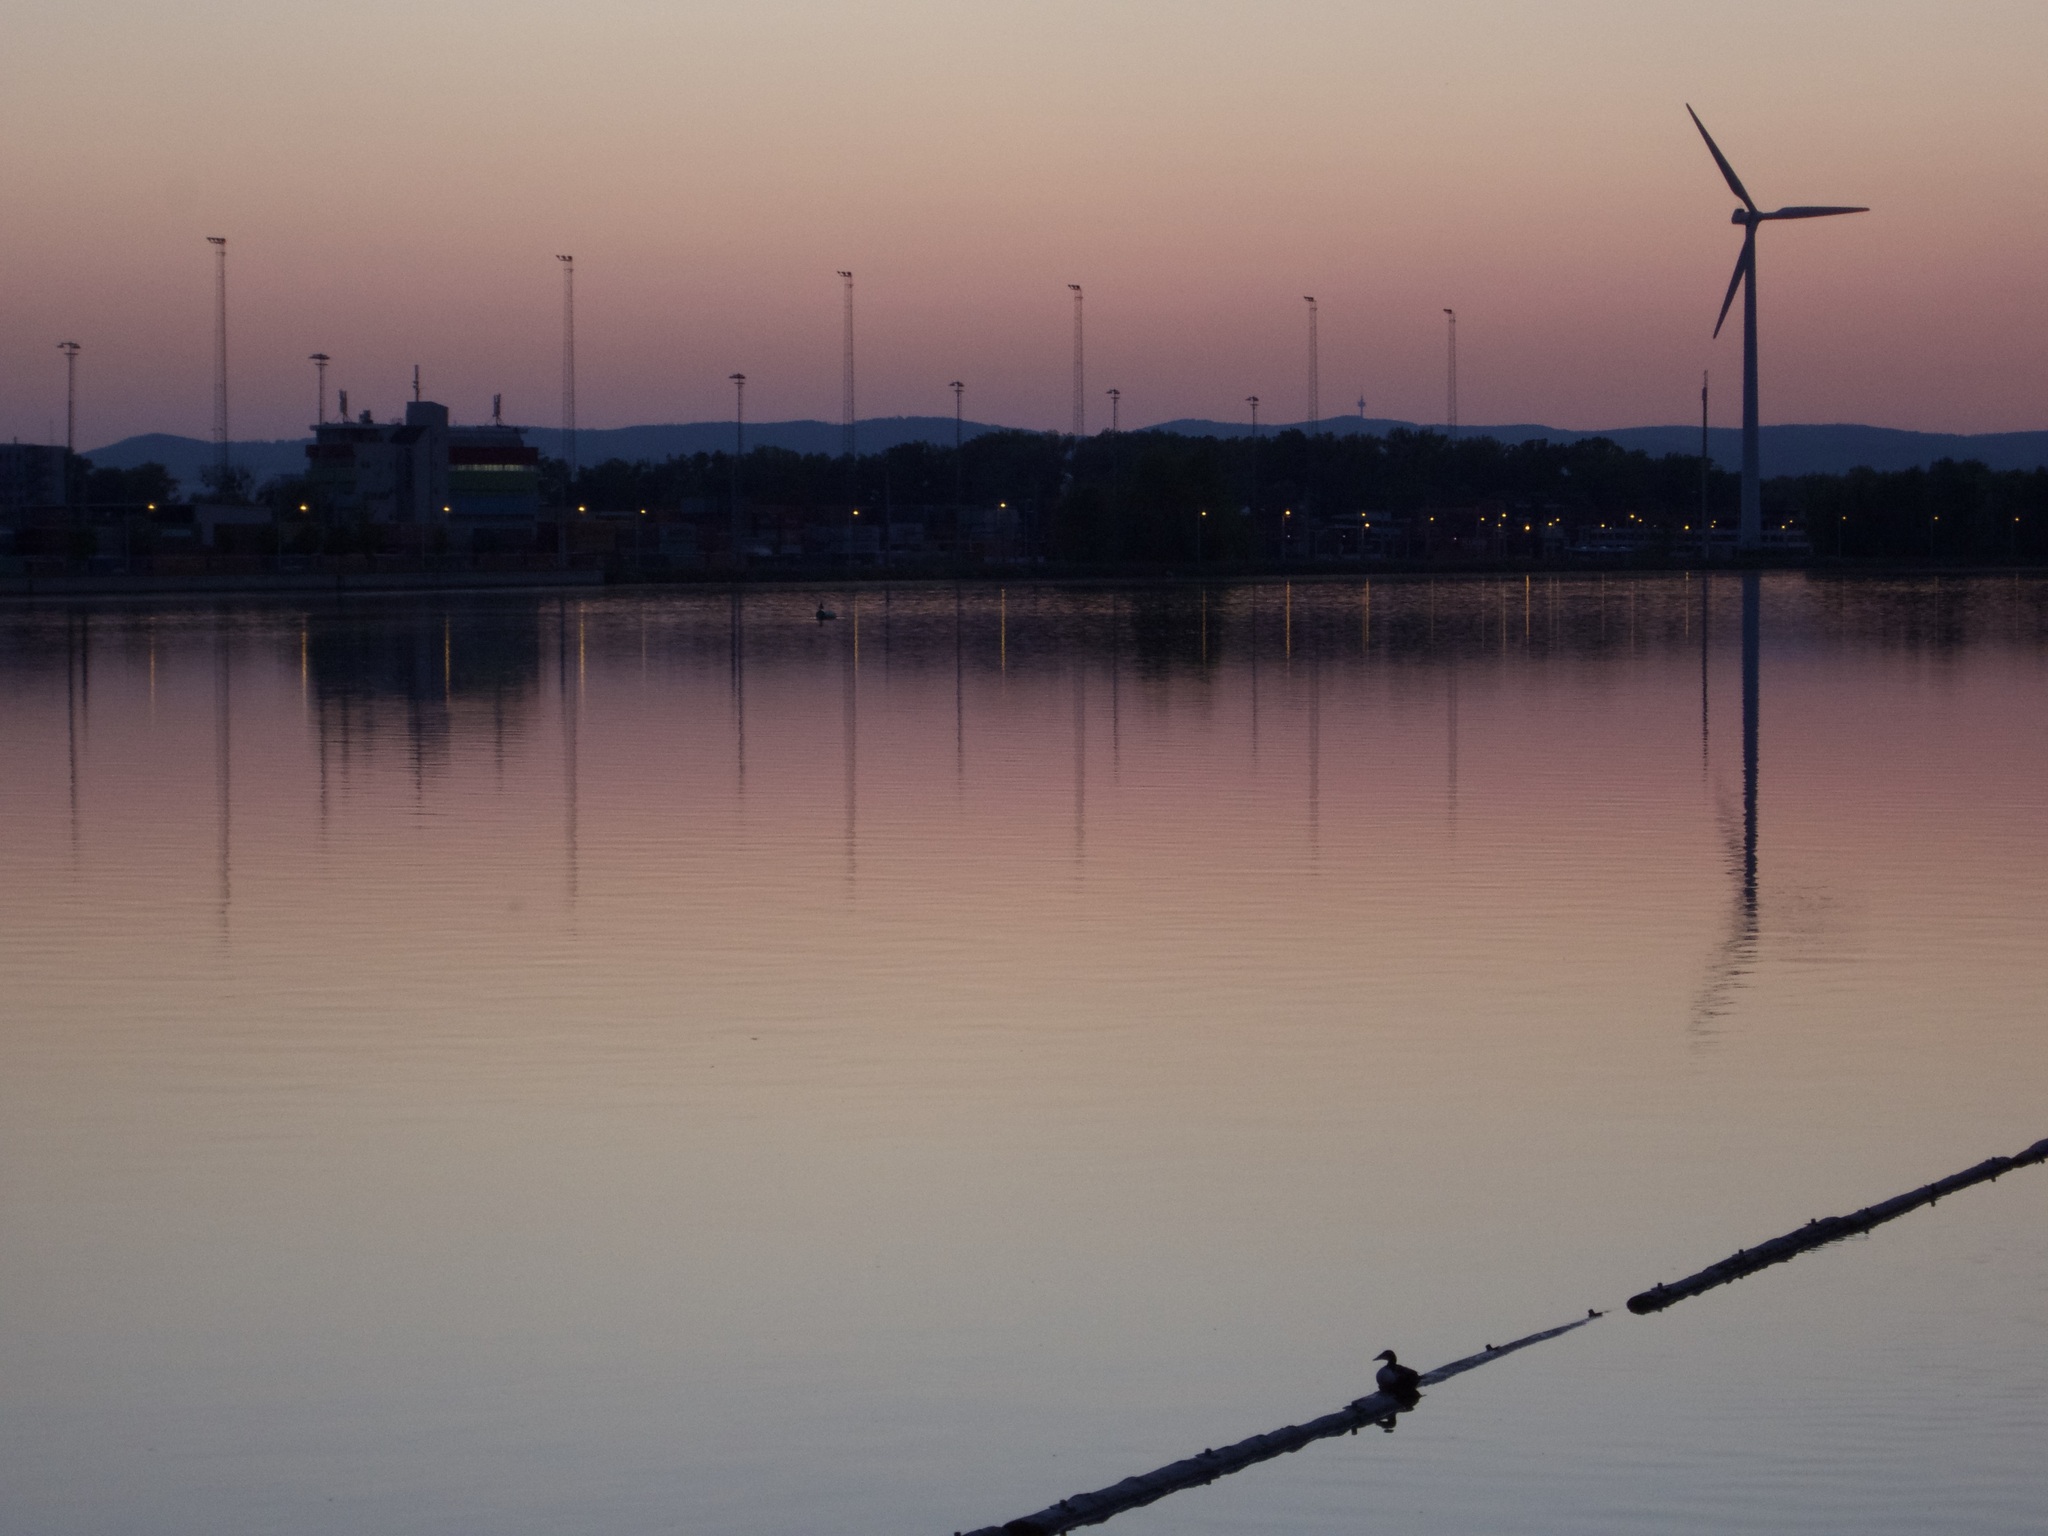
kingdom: Animalia
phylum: Chordata
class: Aves
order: Anseriformes
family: Anatidae
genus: Somateria
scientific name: Somateria mollissima
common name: Common eider
